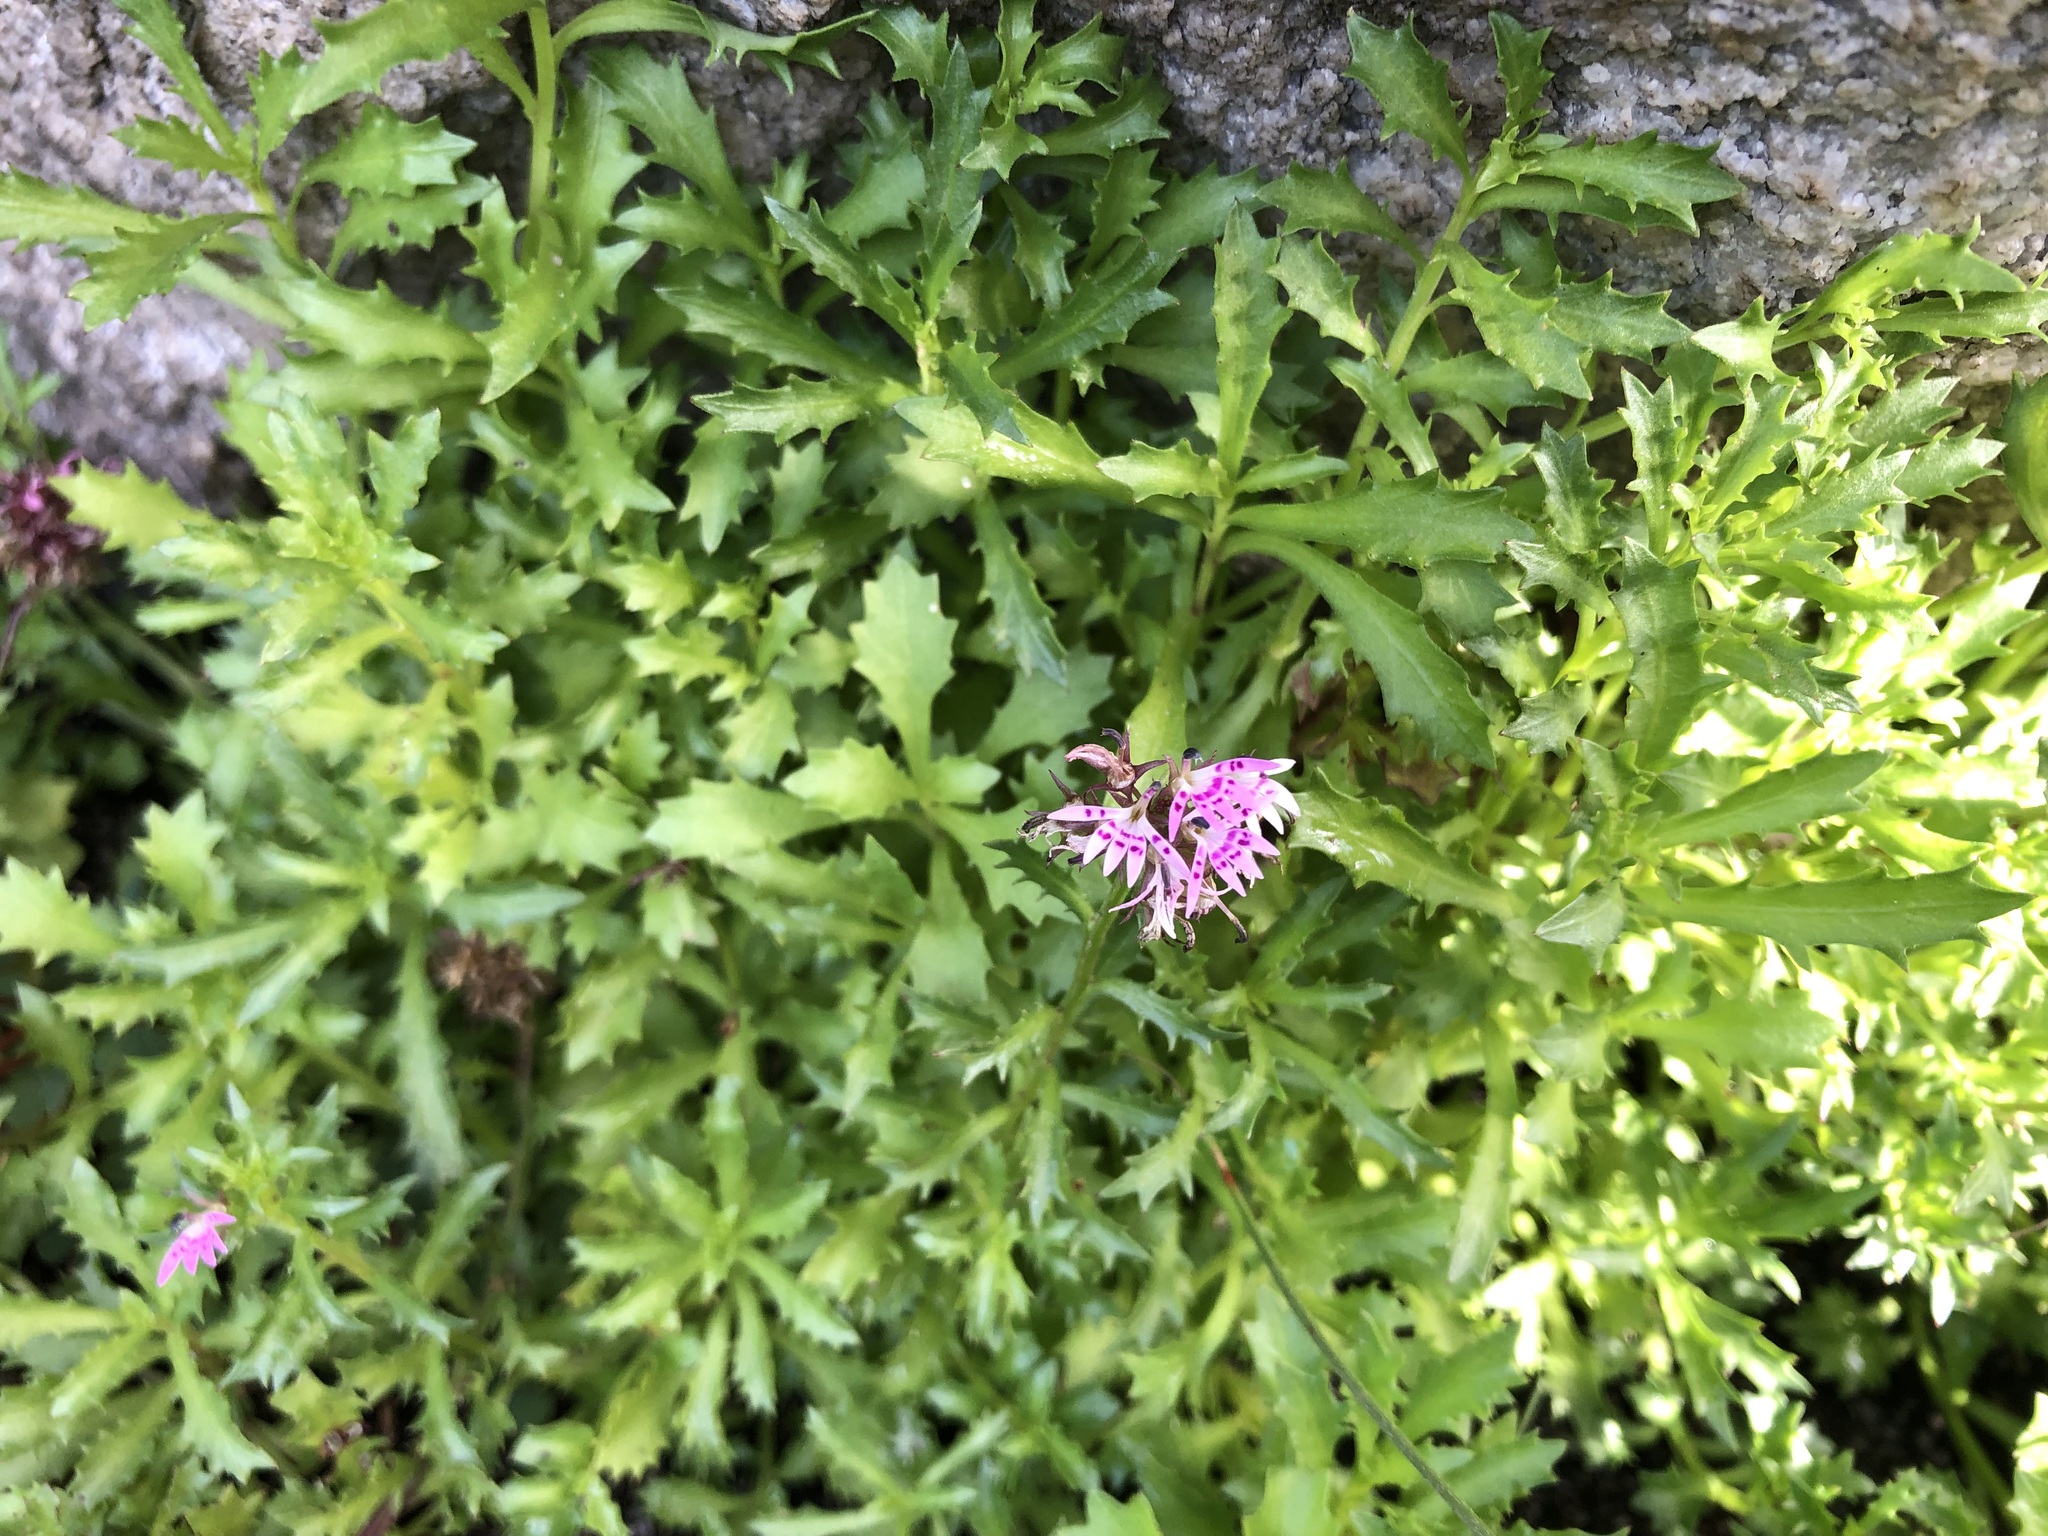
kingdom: Plantae
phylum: Tracheophyta
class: Magnoliopsida
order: Asterales
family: Campanulaceae
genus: Lobelia
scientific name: Lobelia jasionoides
